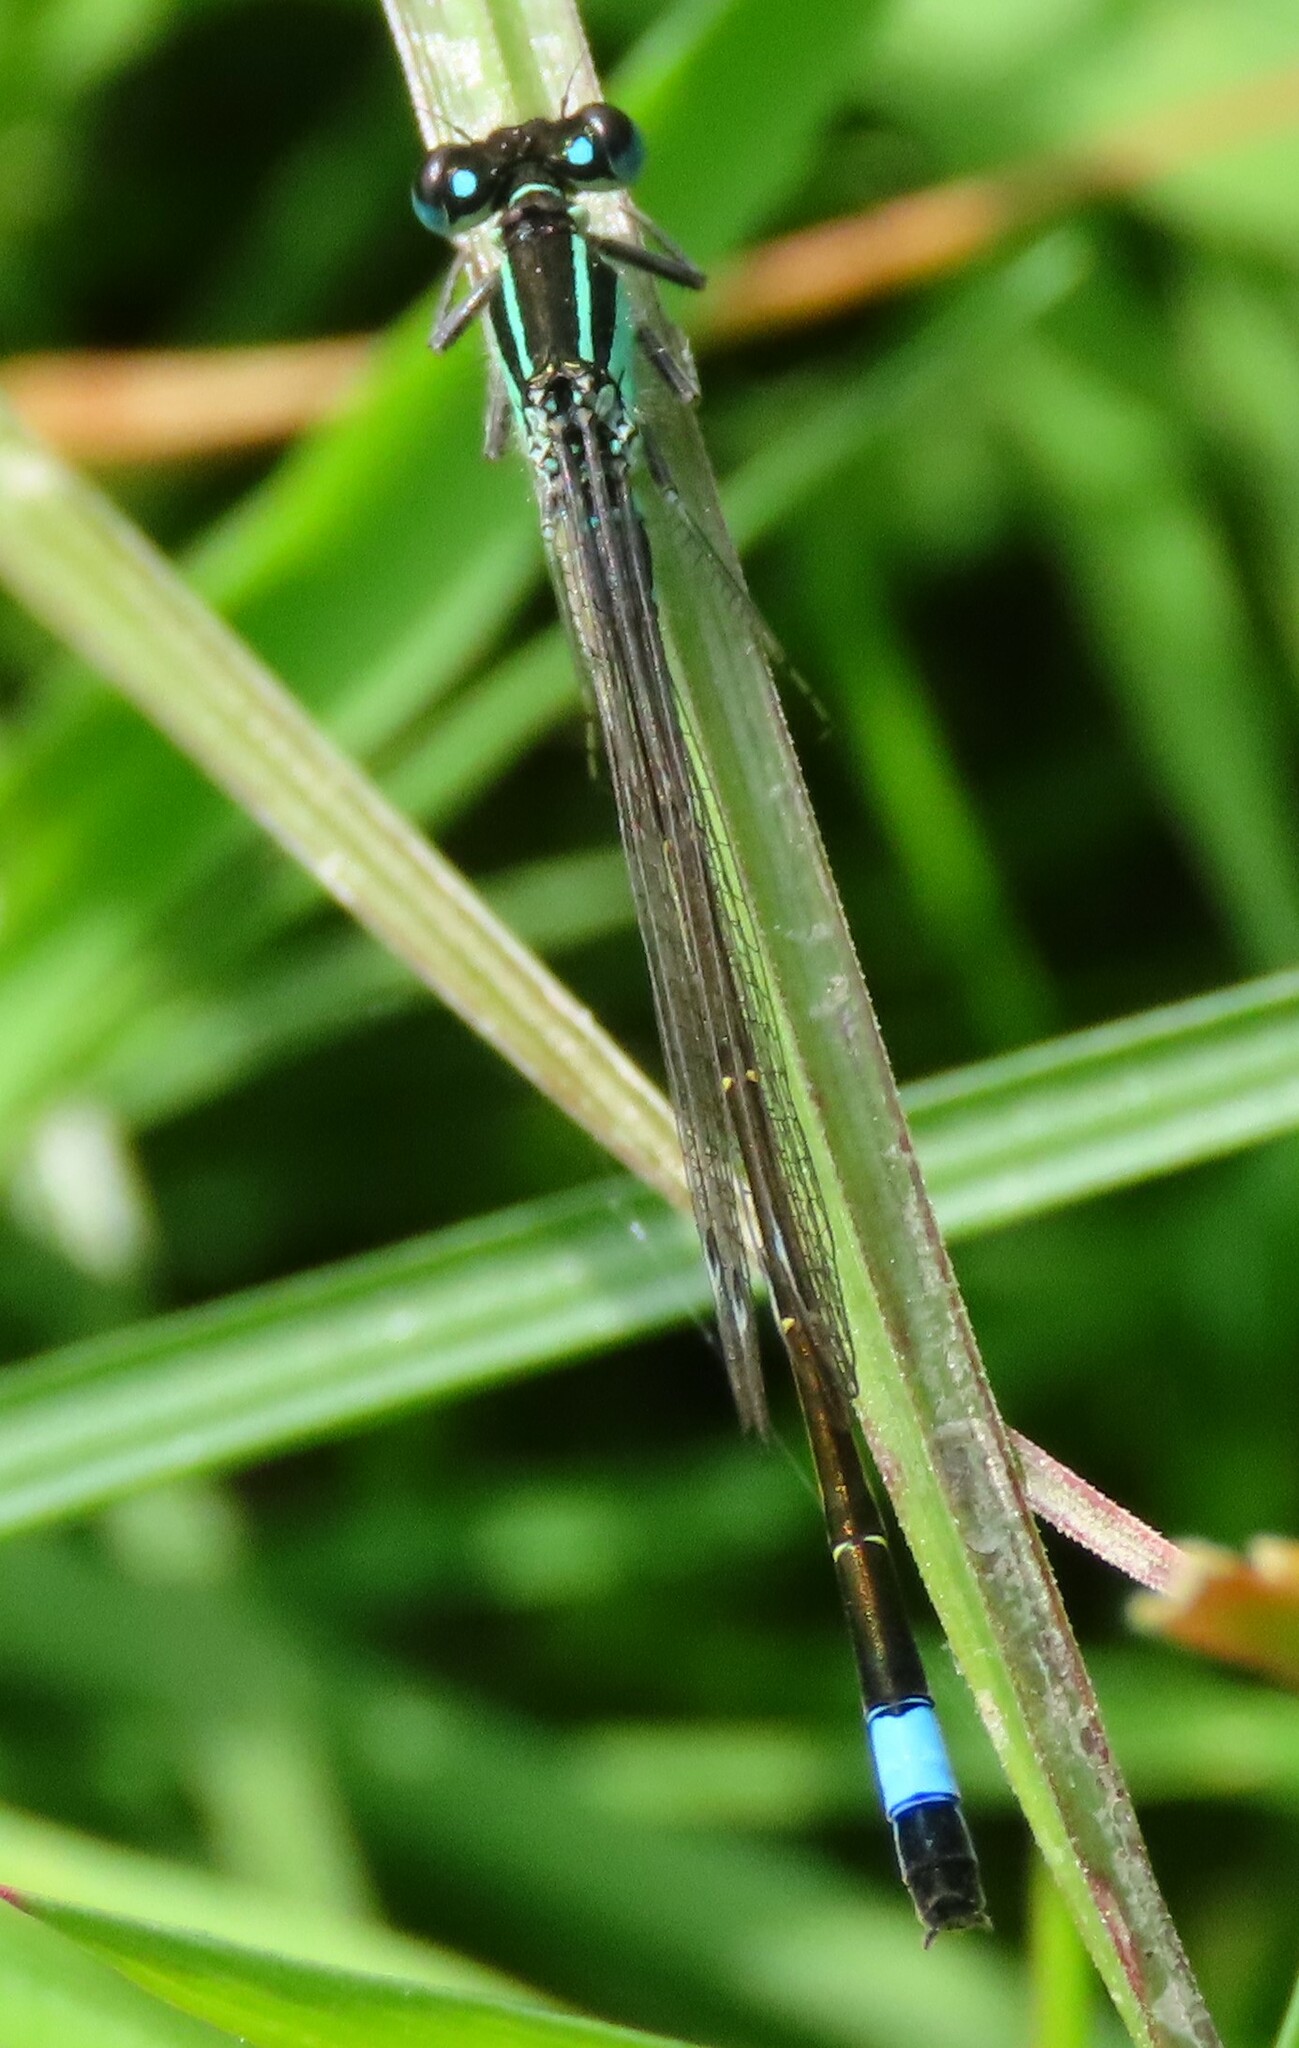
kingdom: Animalia
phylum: Arthropoda
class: Insecta
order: Odonata
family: Coenagrionidae
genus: Ischnura
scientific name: Ischnura elegans
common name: Blue-tailed damselfly
